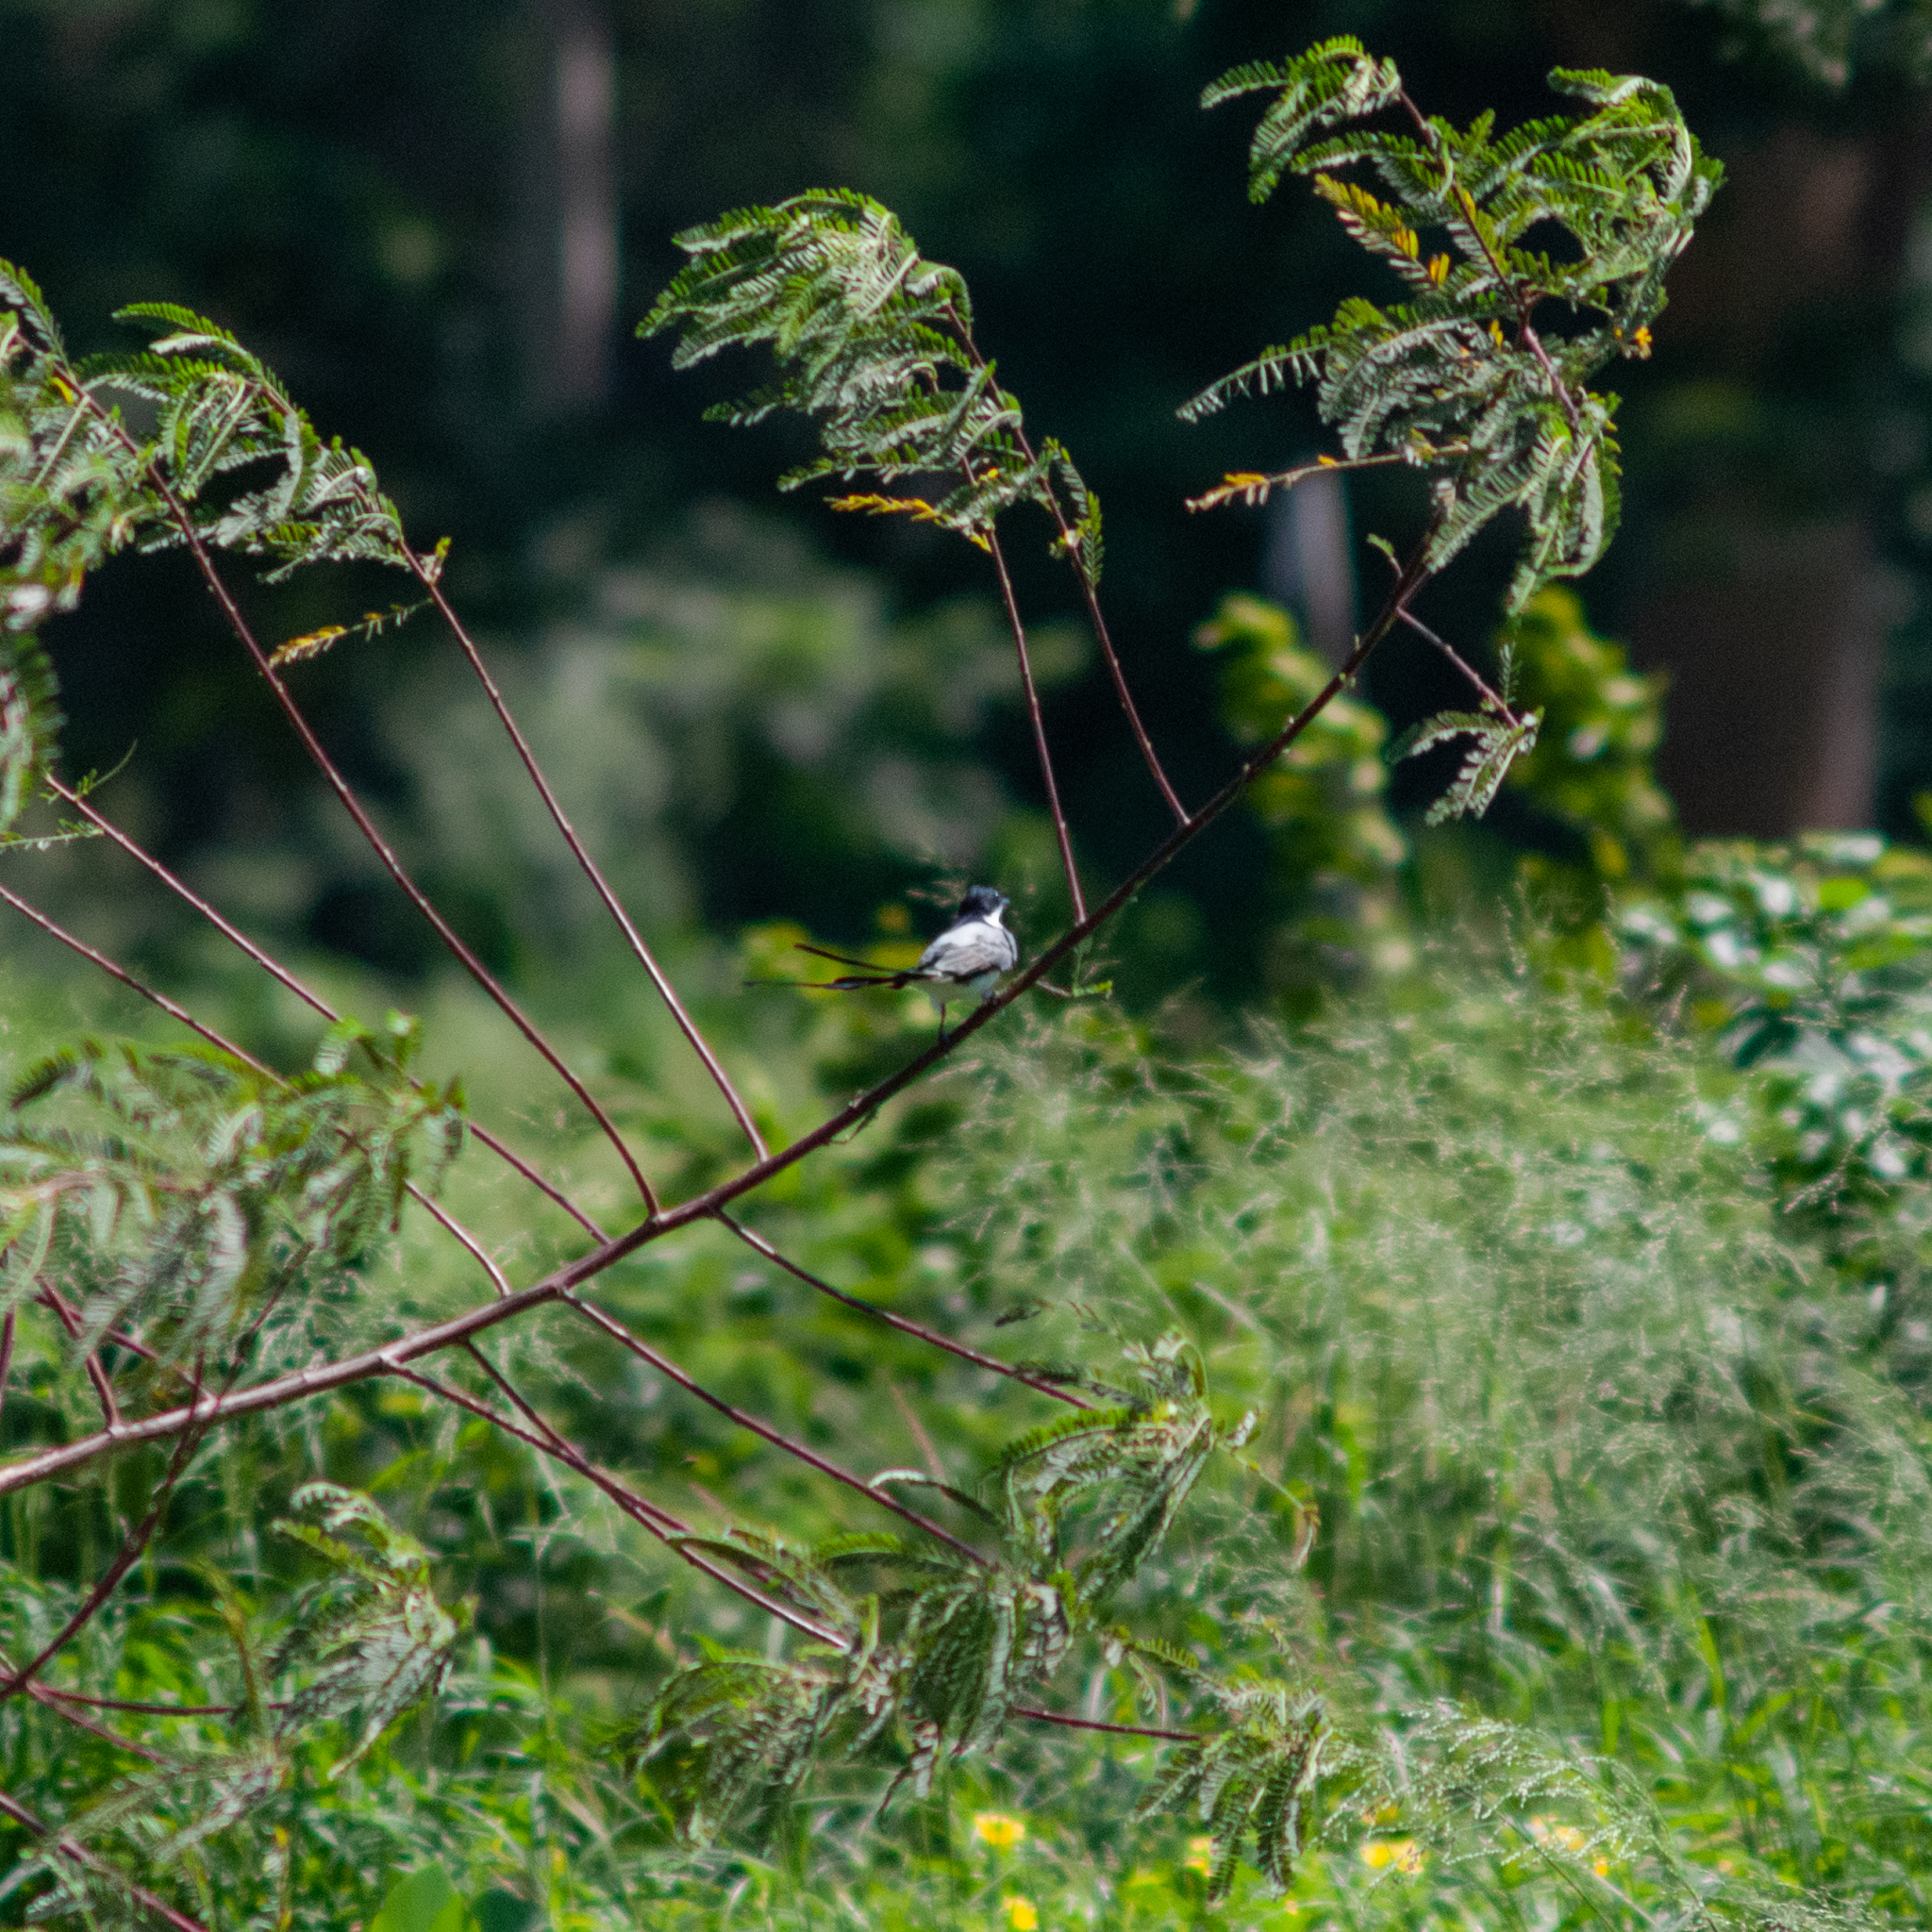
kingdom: Animalia
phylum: Chordata
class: Aves
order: Passeriformes
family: Tyrannidae
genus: Tyrannus
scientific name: Tyrannus savana
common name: Fork-tailed flycatcher
